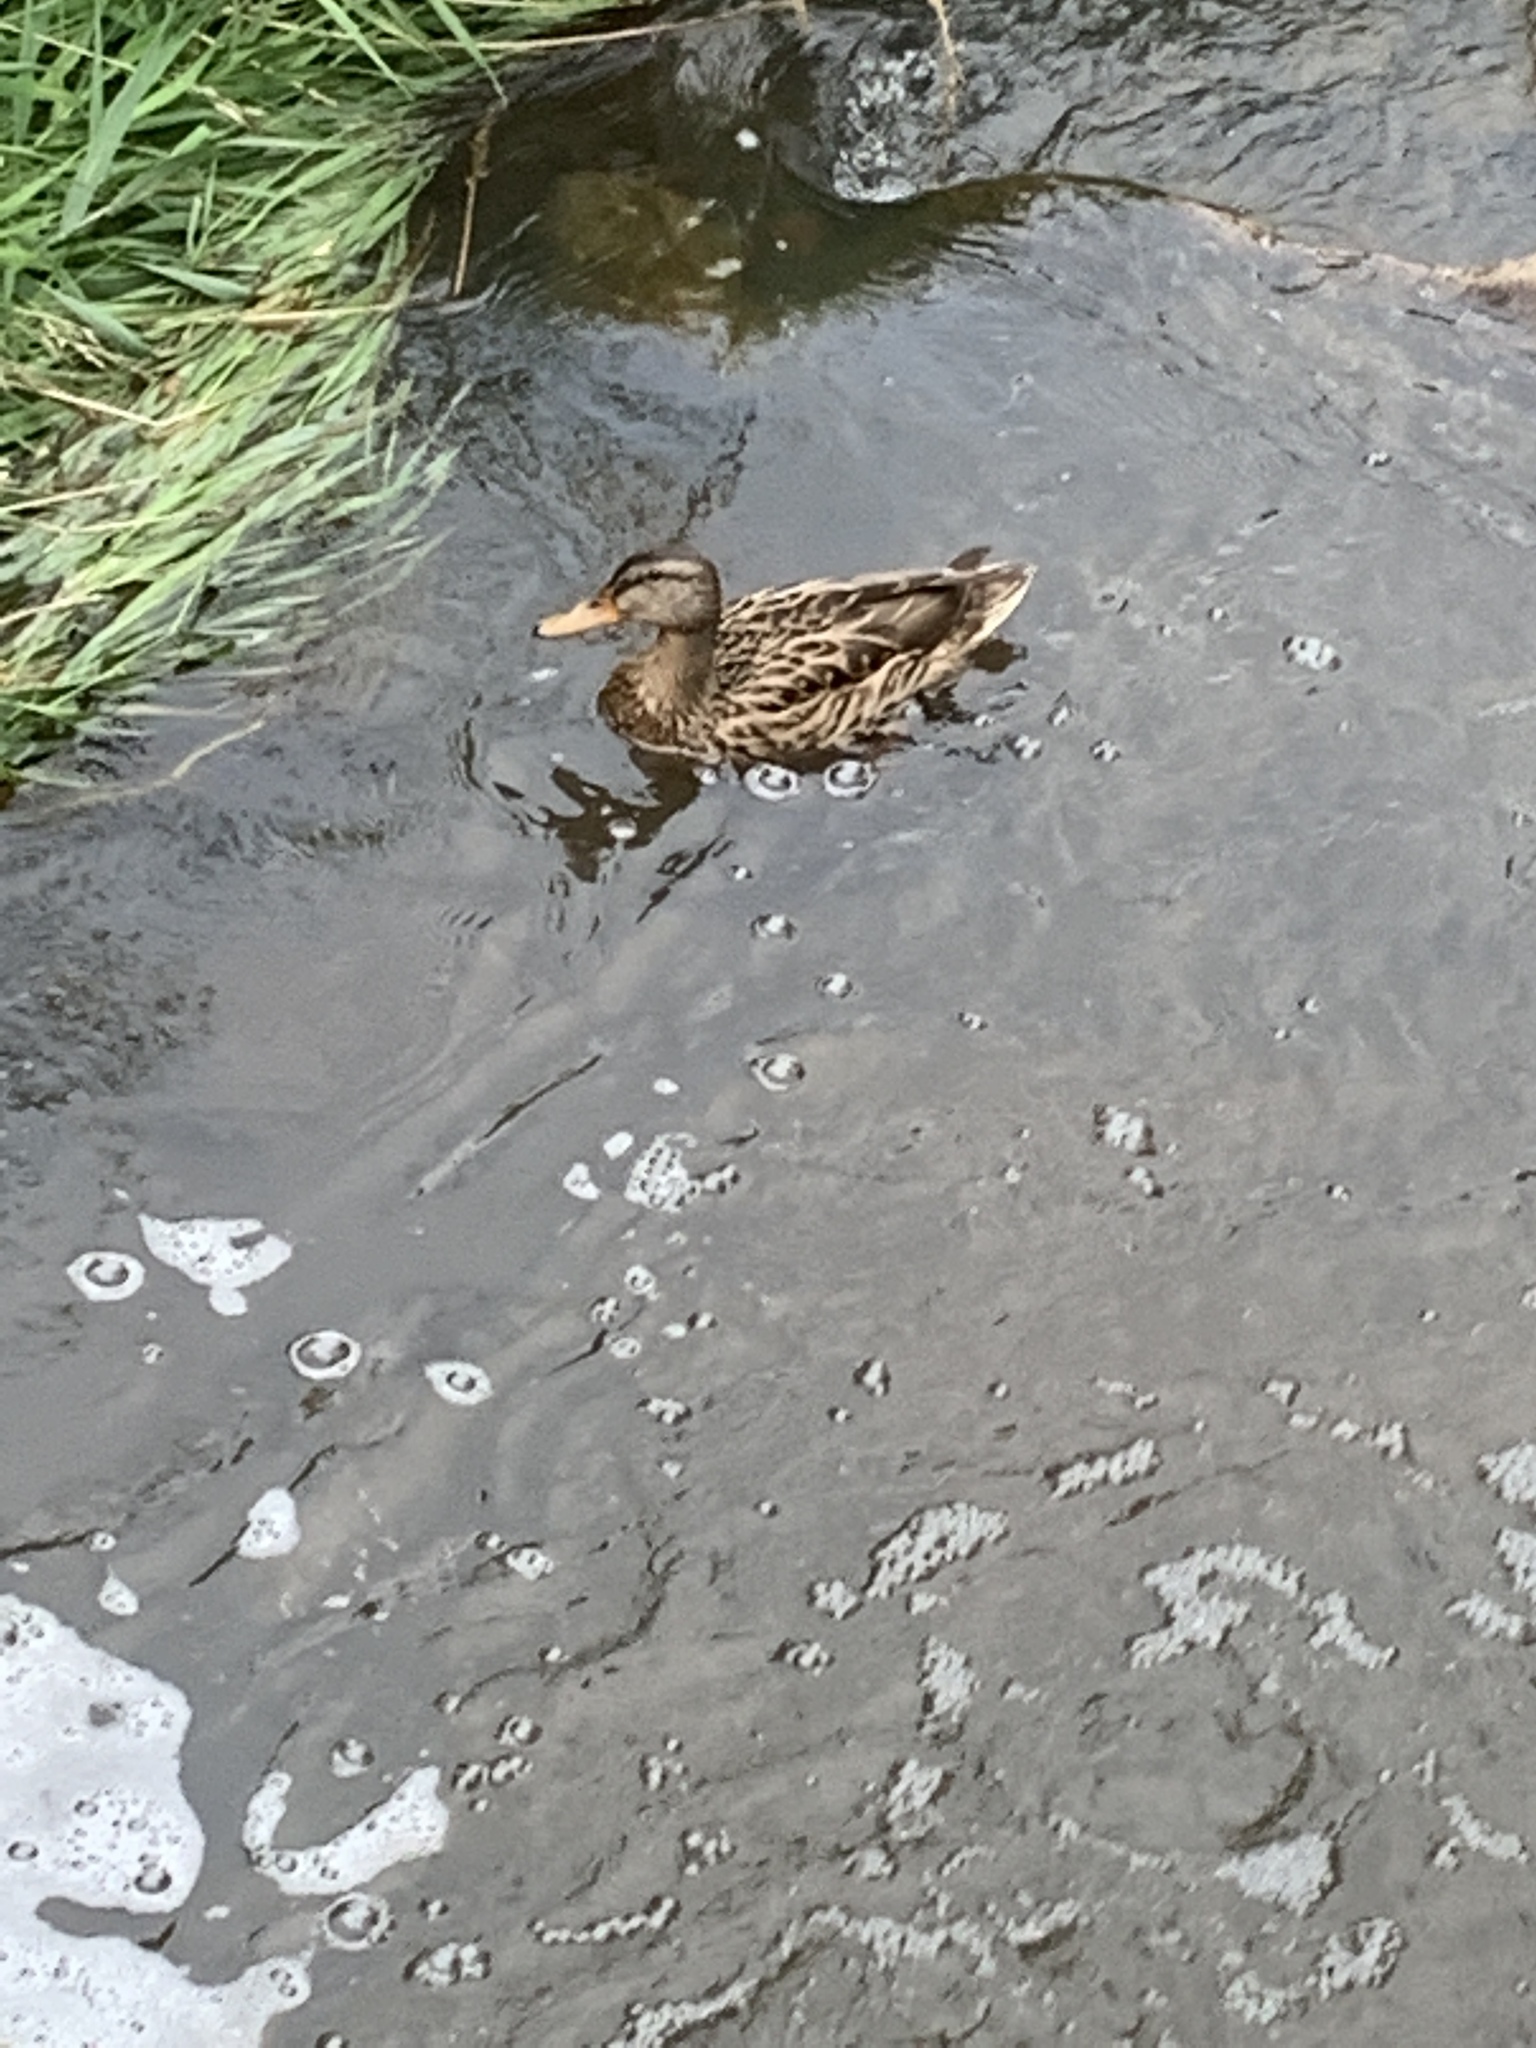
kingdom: Animalia
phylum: Chordata
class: Aves
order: Anseriformes
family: Anatidae
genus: Anas
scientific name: Anas platyrhynchos
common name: Mallard
